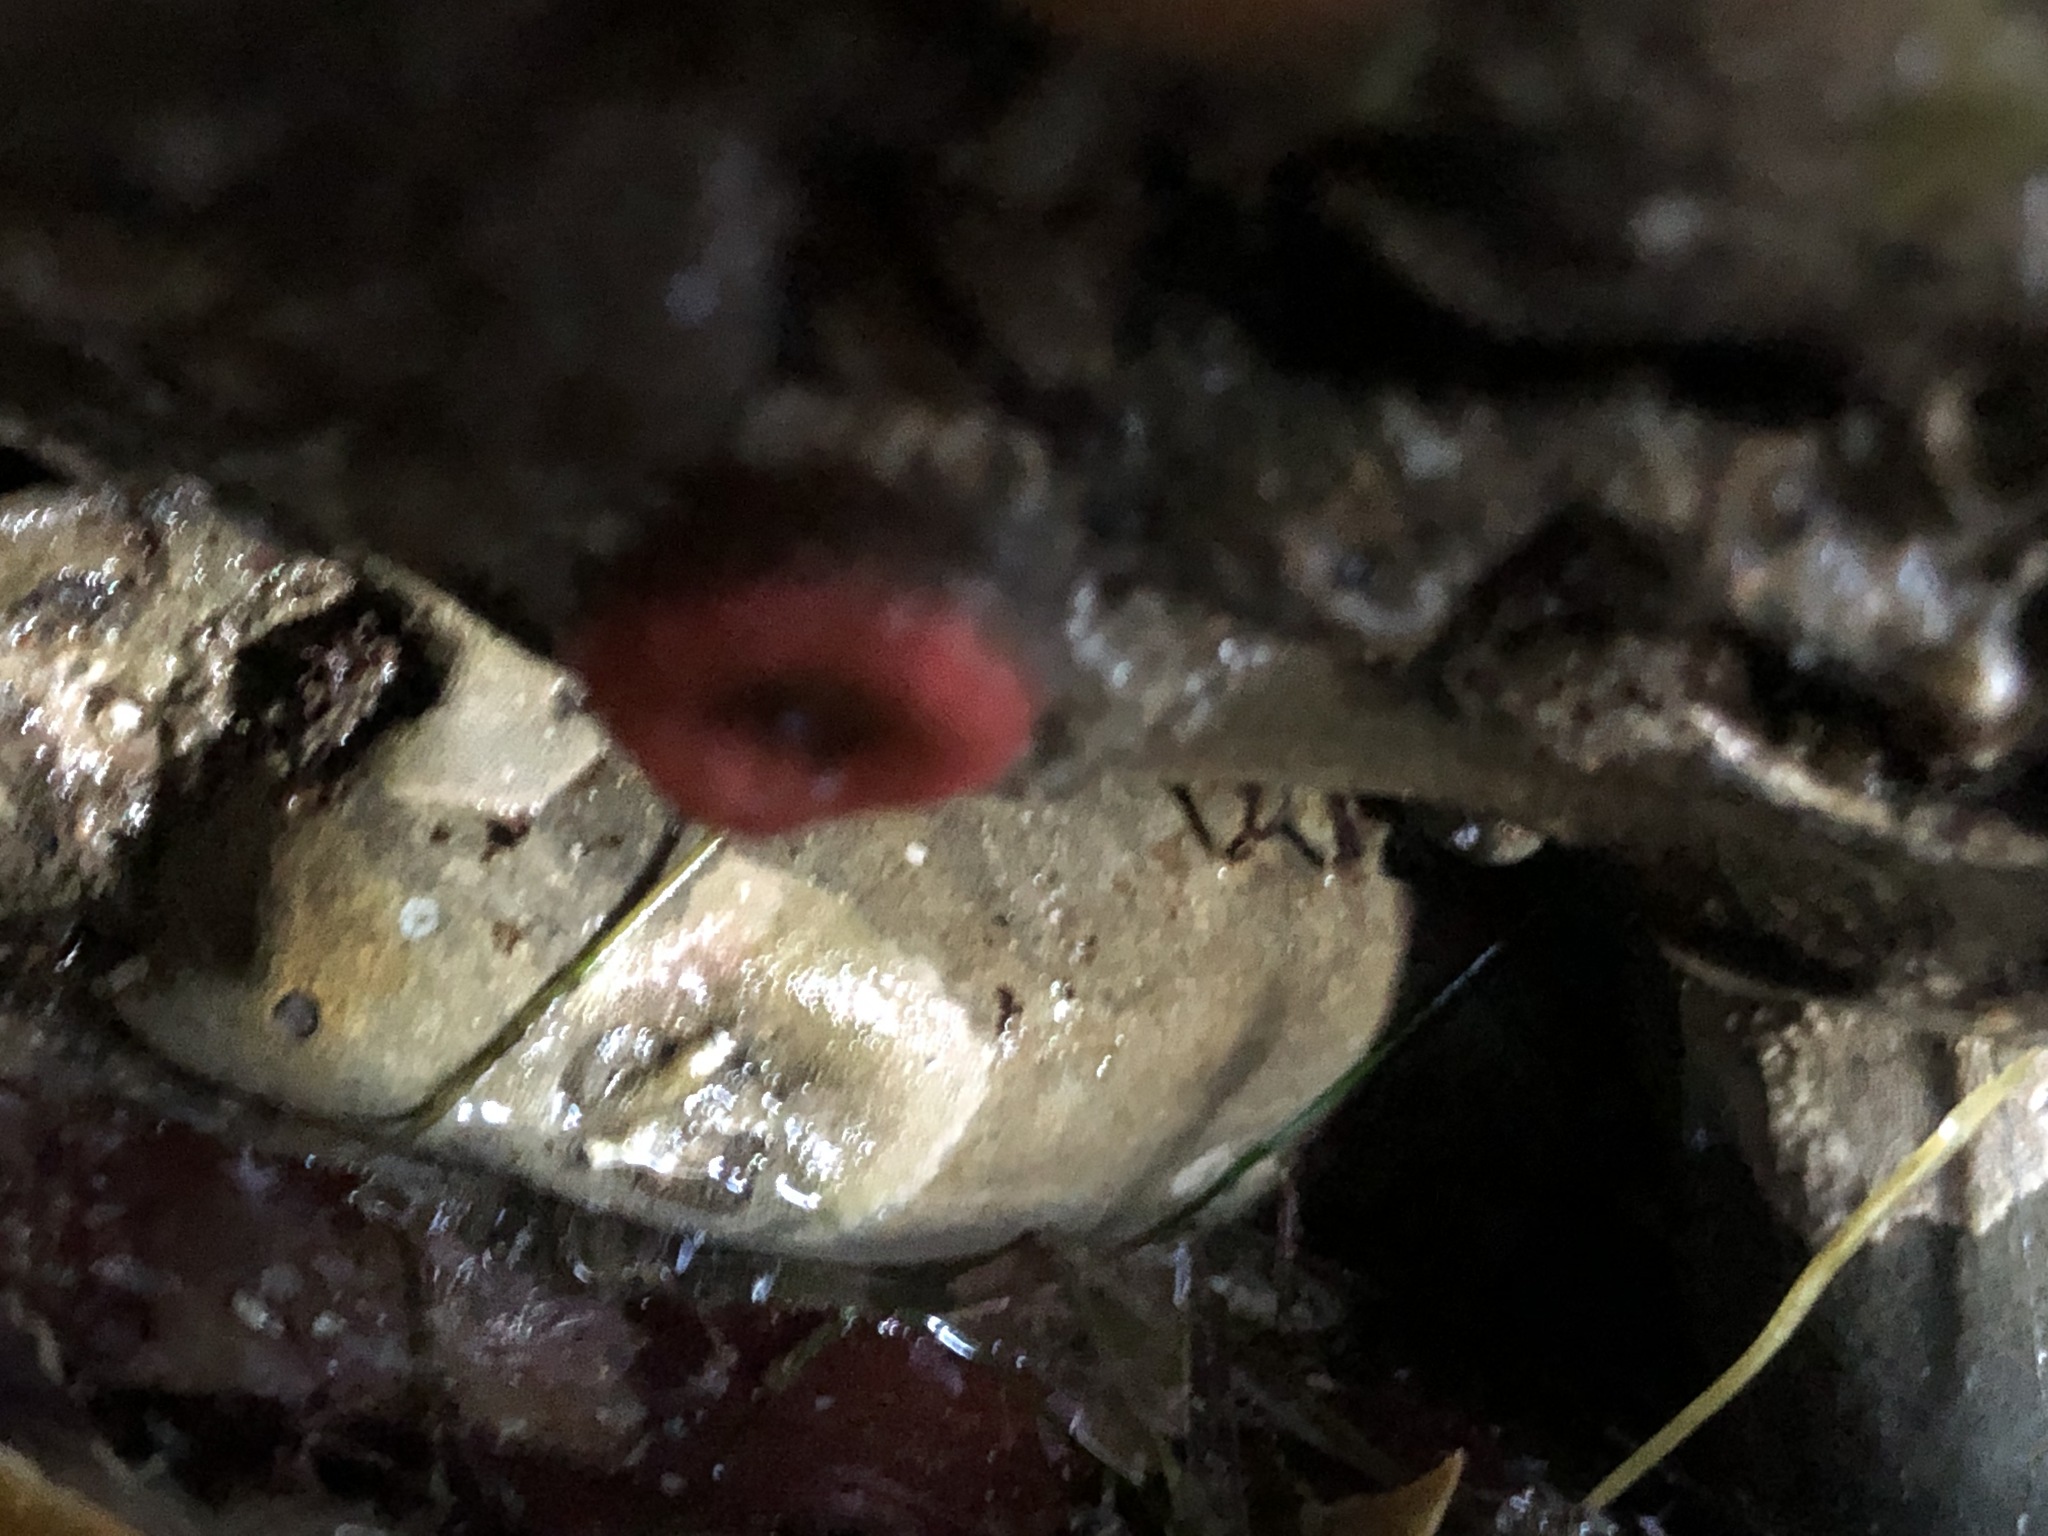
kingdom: Animalia
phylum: Cnidaria
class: Anthozoa
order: Actiniaria
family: Actiniidae
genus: Anthopleura
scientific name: Anthopleura artemisia
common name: Buried sea anemone
